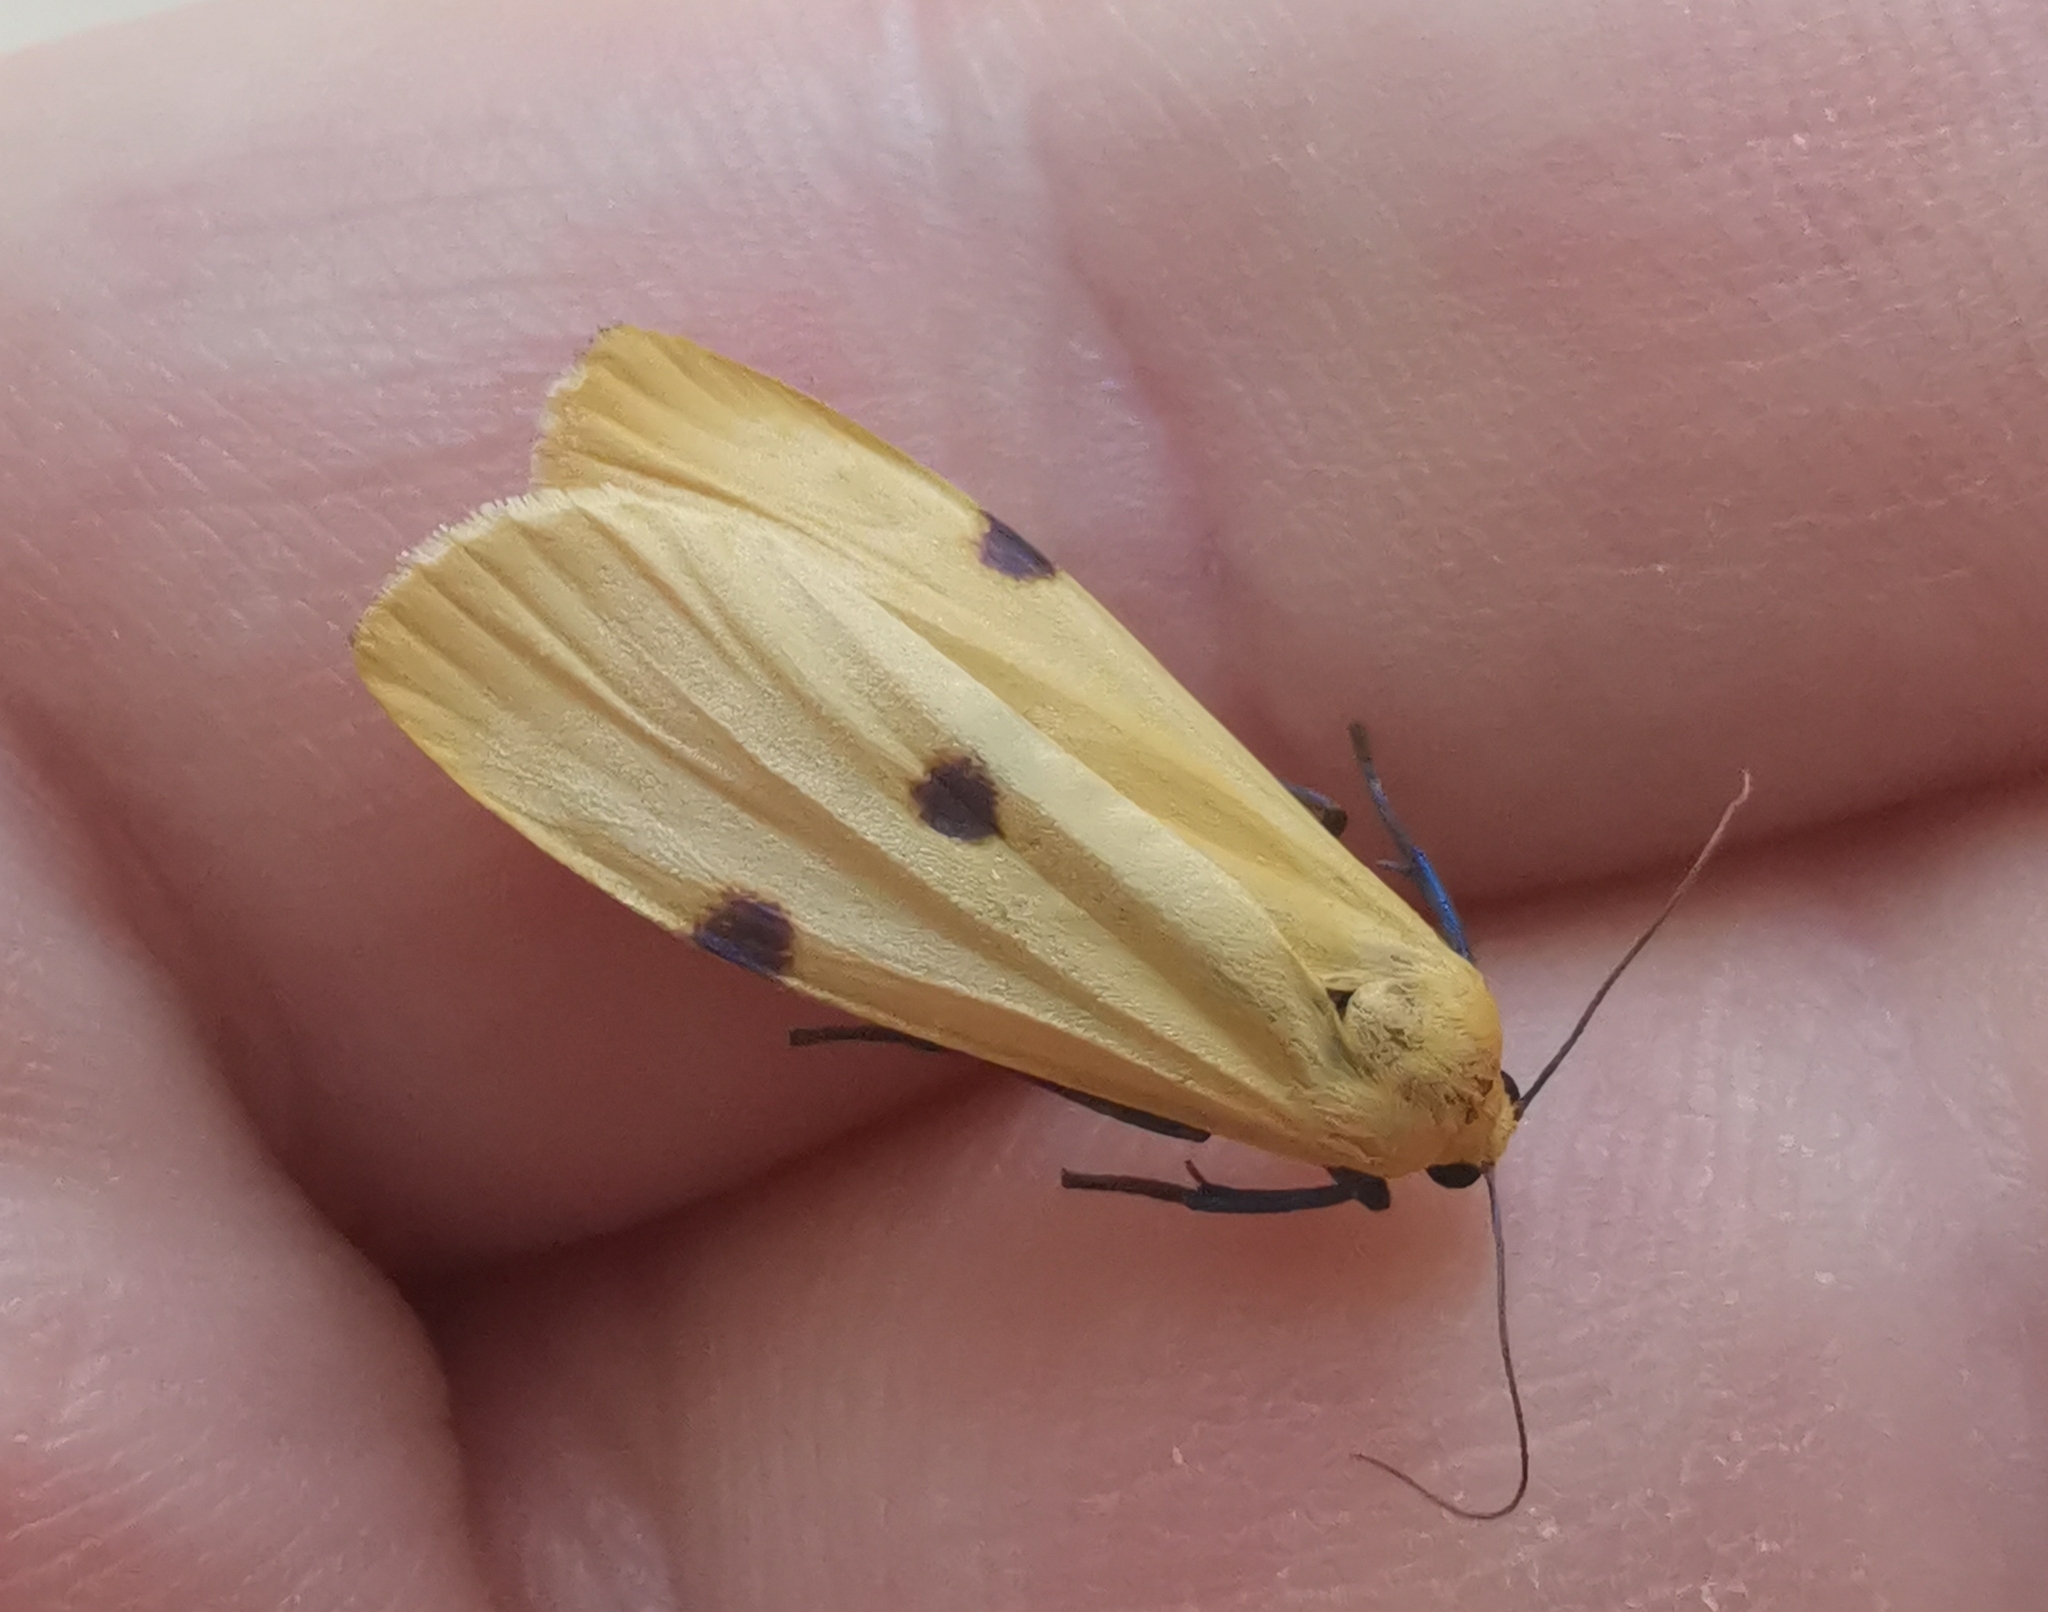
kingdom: Animalia
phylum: Arthropoda
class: Insecta
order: Lepidoptera
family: Erebidae
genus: Lithosia
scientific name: Lithosia quadra
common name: Four-spotted footman
